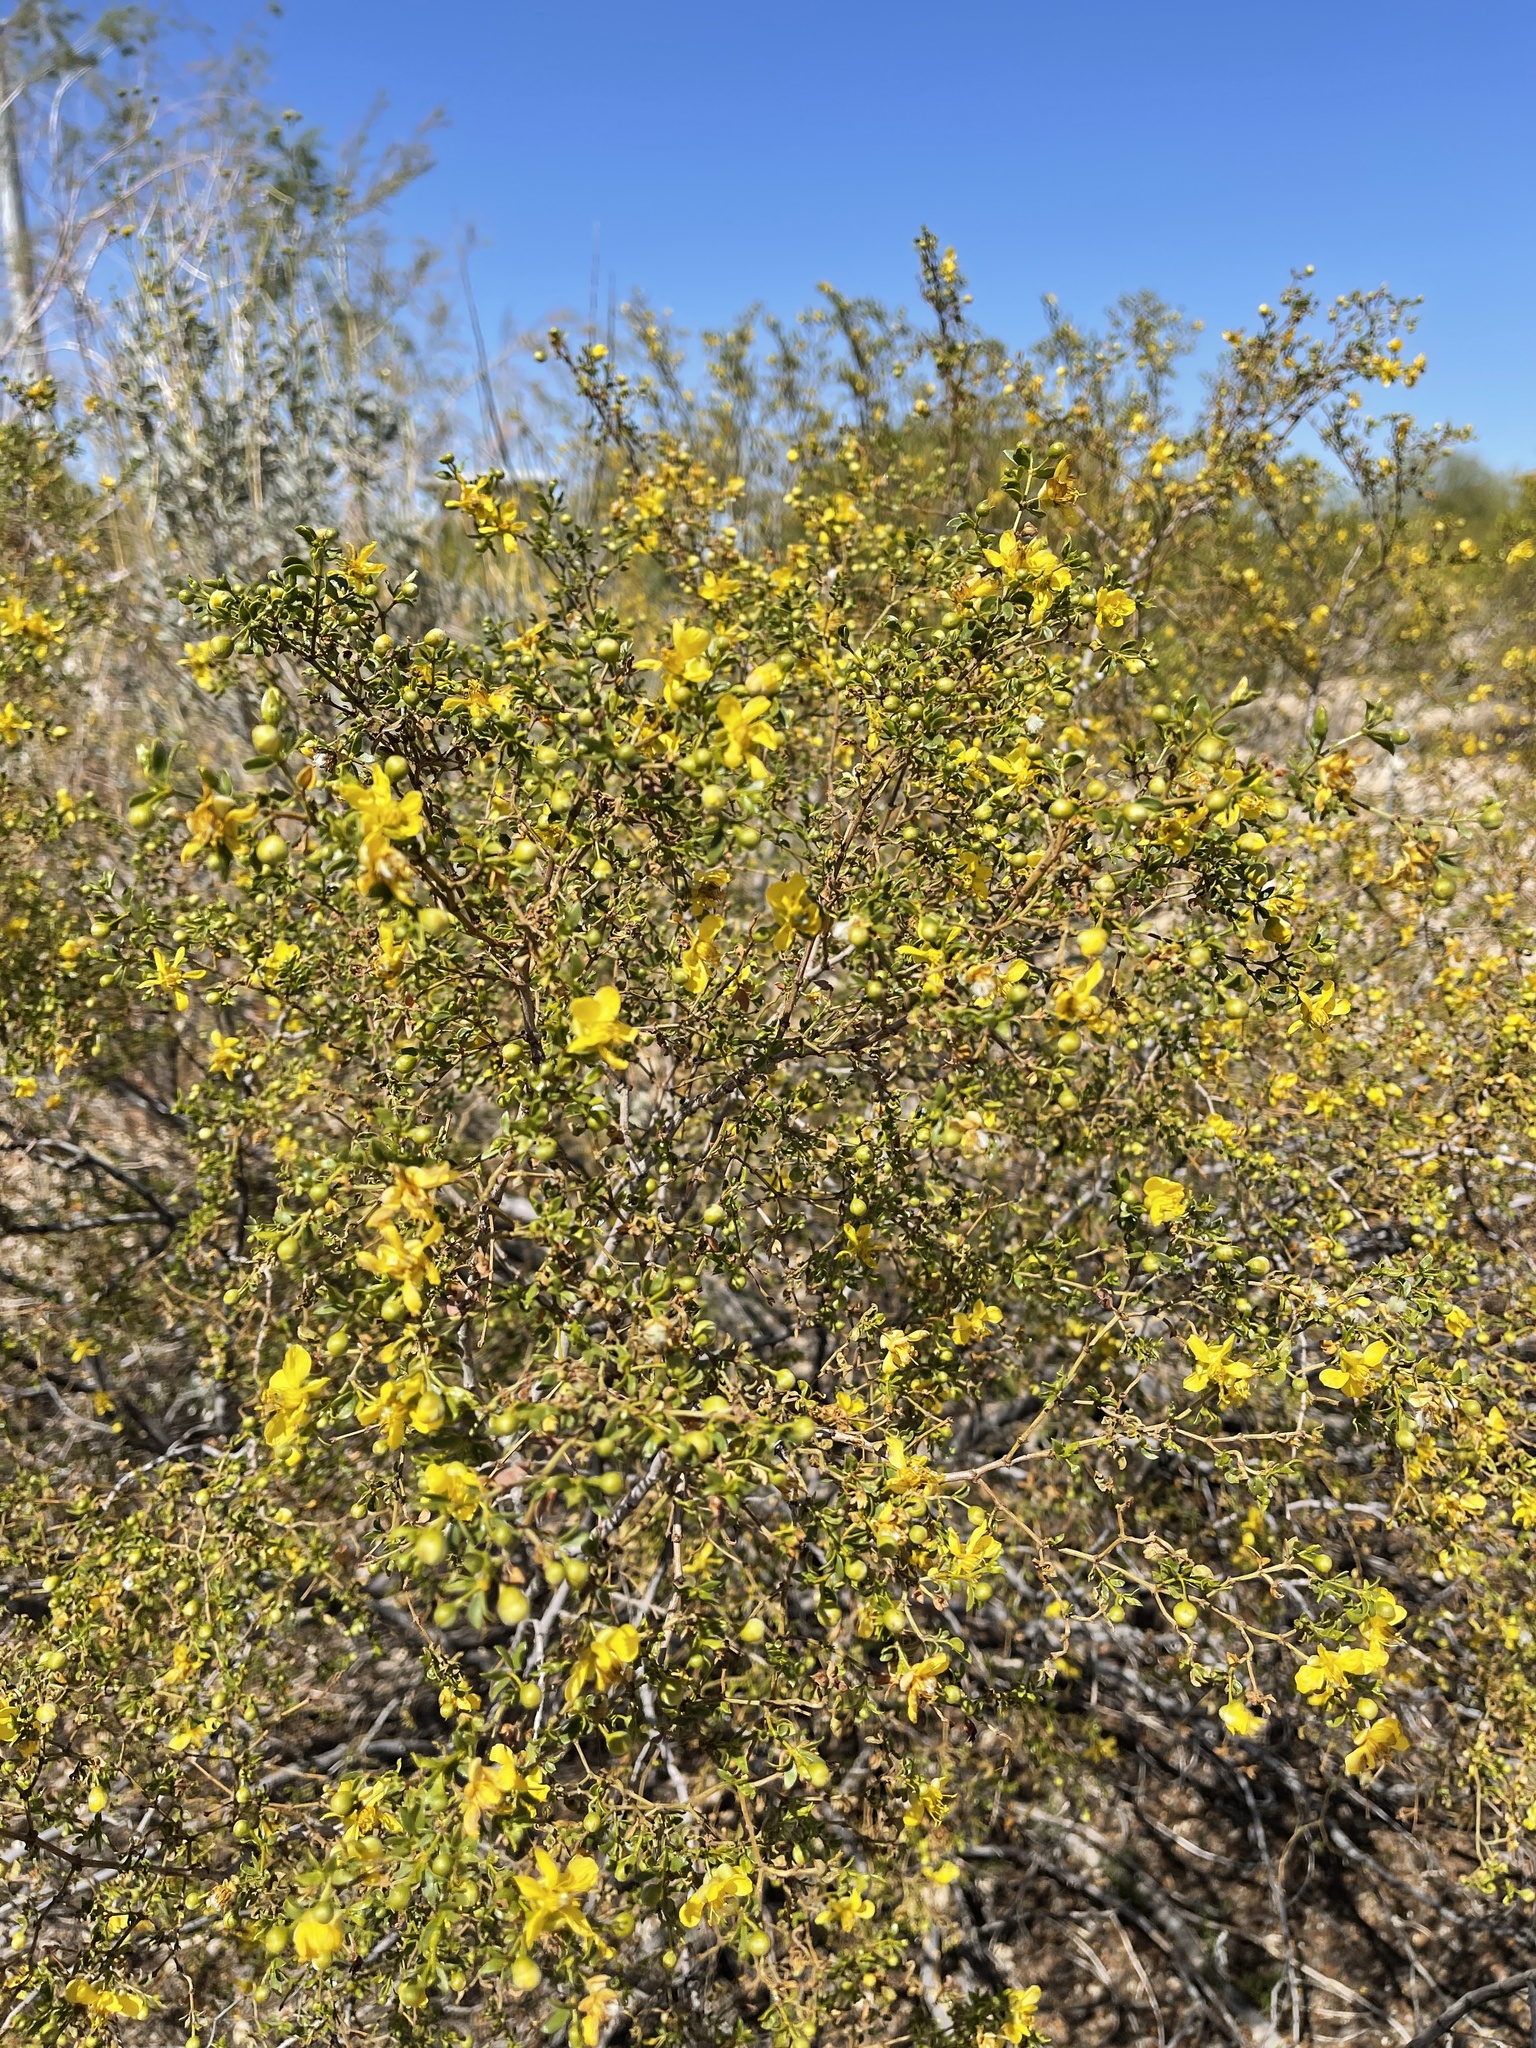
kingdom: Plantae
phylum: Tracheophyta
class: Magnoliopsida
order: Zygophyllales
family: Zygophyllaceae
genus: Larrea
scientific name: Larrea tridentata
